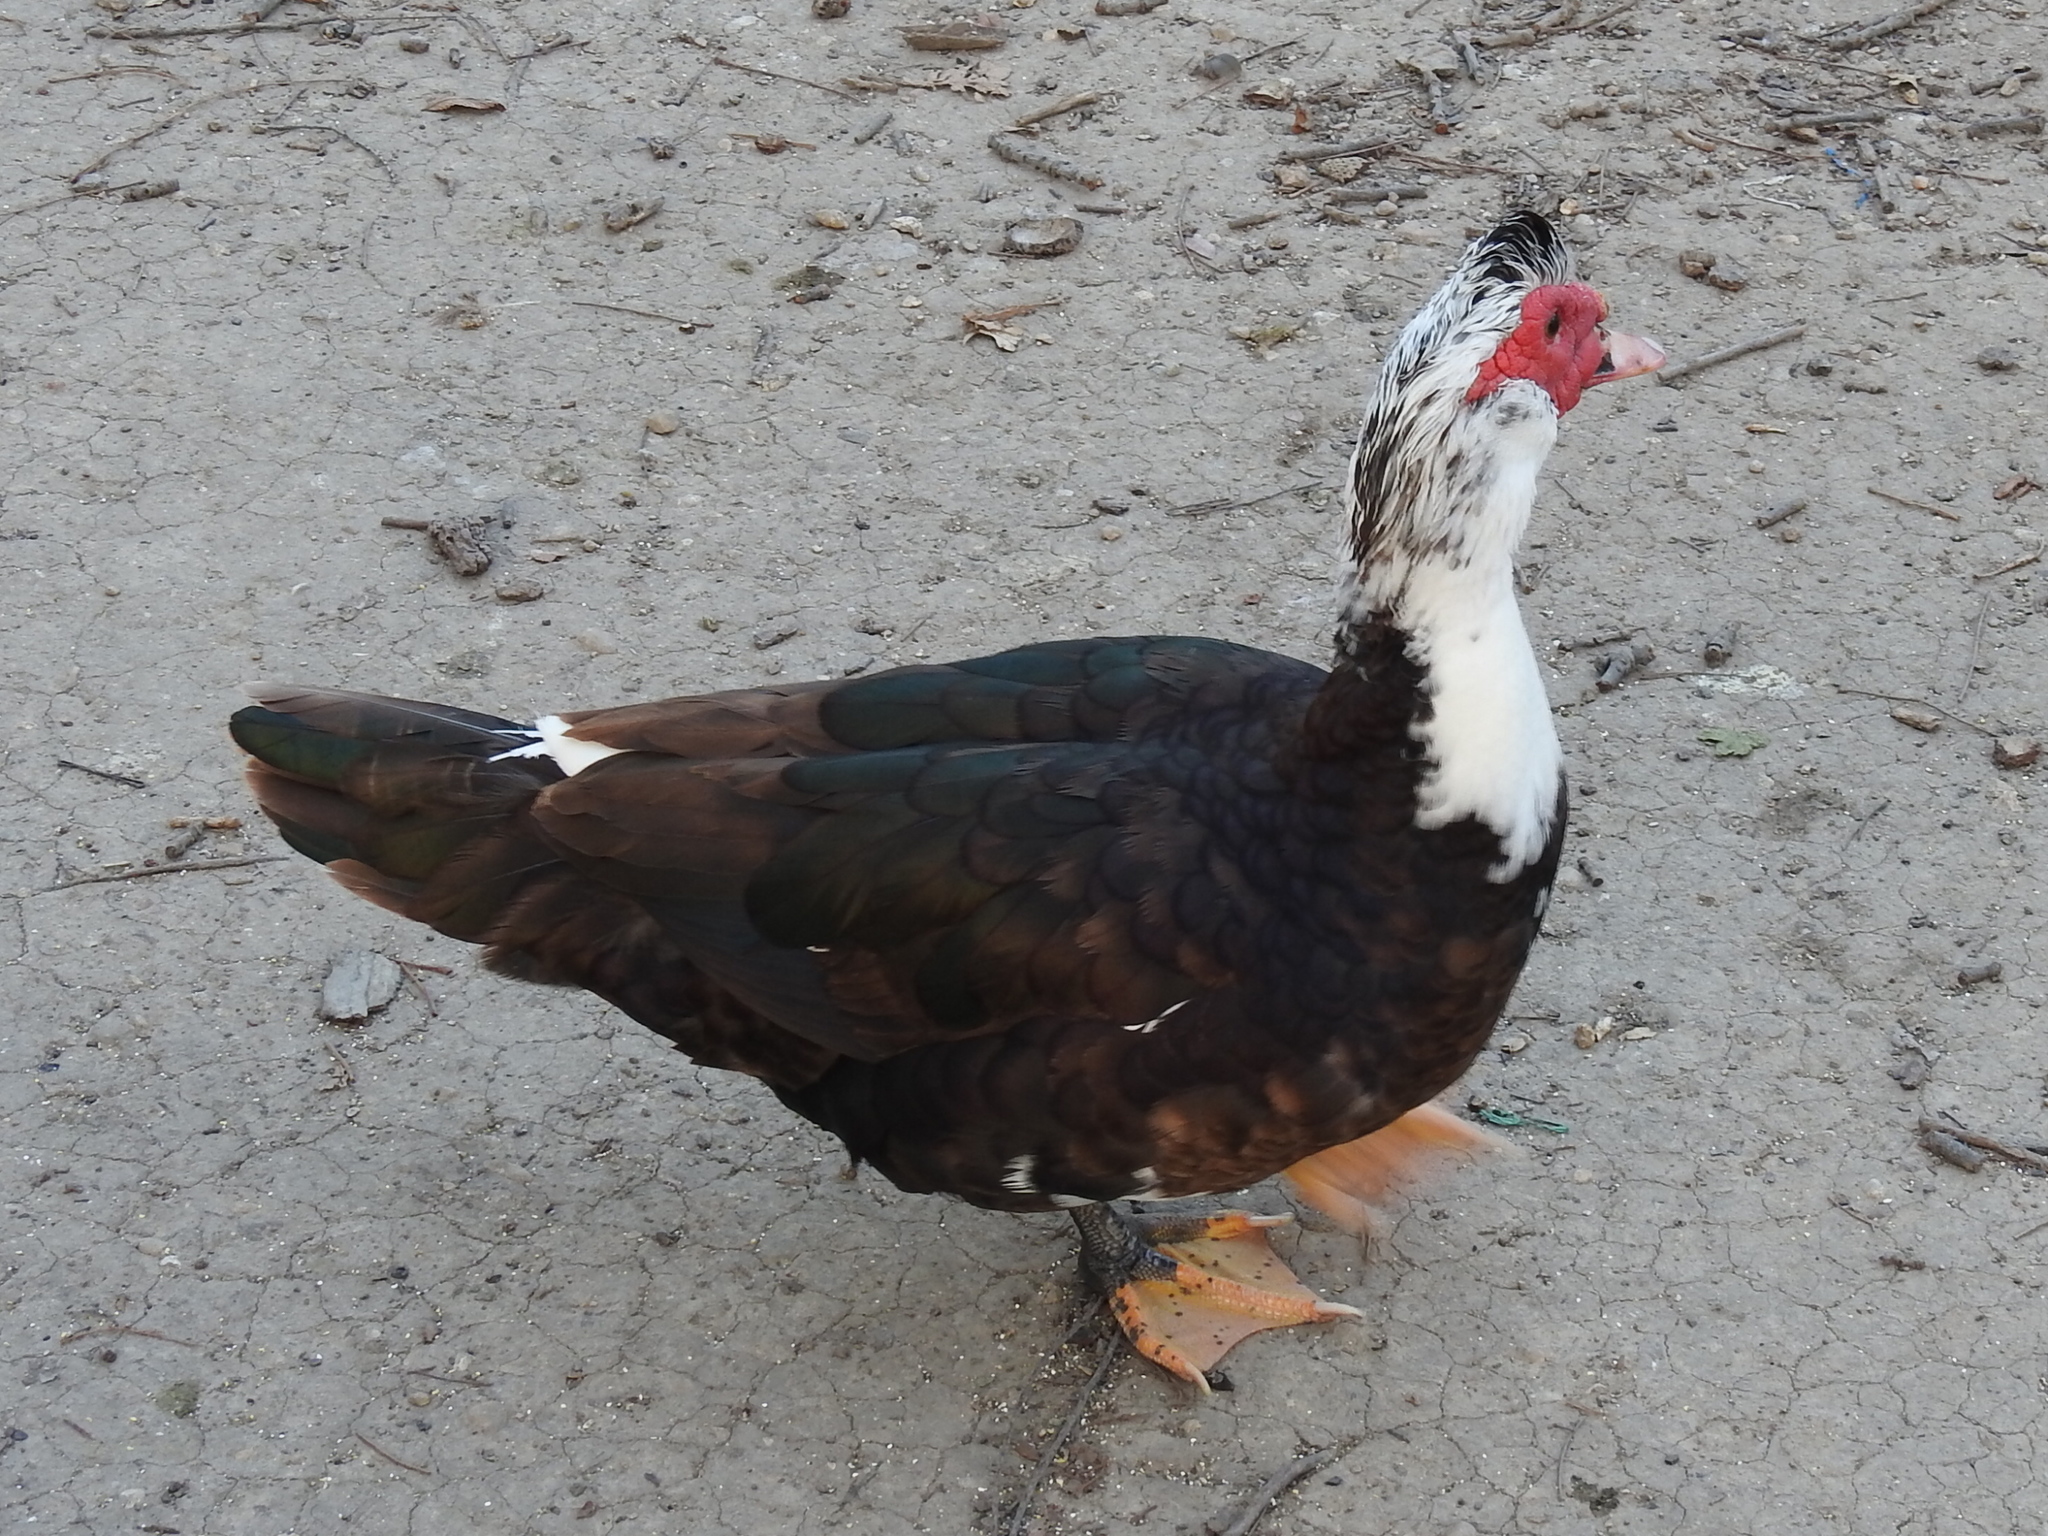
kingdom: Animalia
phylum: Chordata
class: Aves
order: Anseriformes
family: Anatidae
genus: Cairina
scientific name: Cairina moschata
